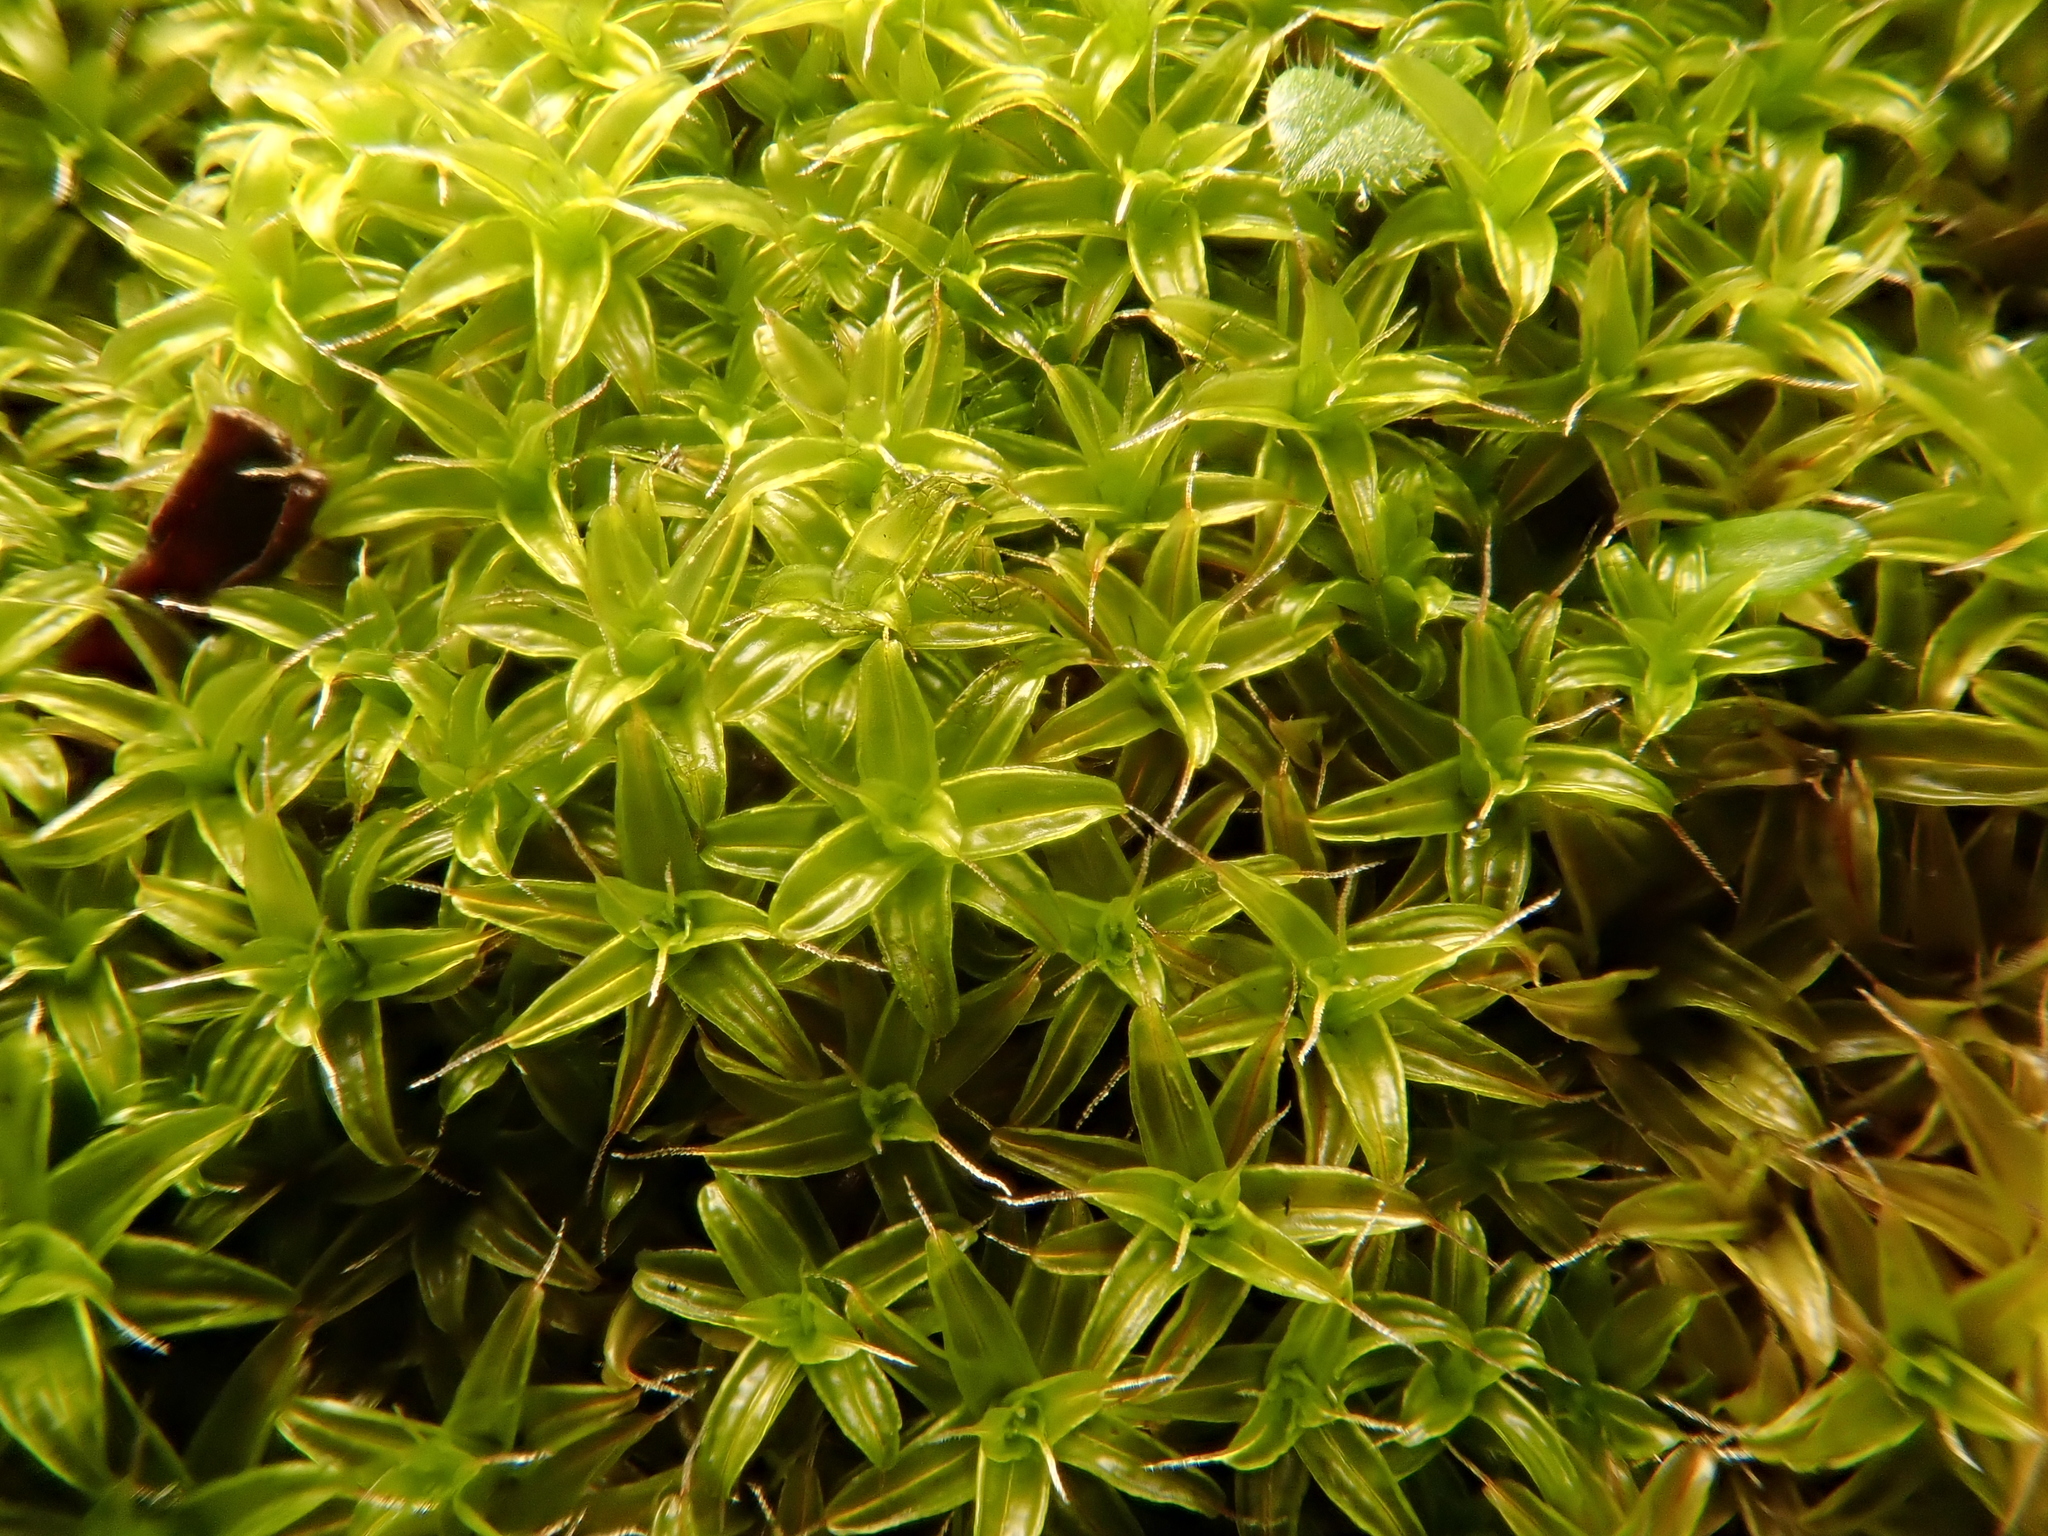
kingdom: Plantae
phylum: Bryophyta
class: Bryopsida
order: Pottiales
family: Pottiaceae
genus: Syntrichia
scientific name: Syntrichia ruralis
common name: Sidewalk screw moss
